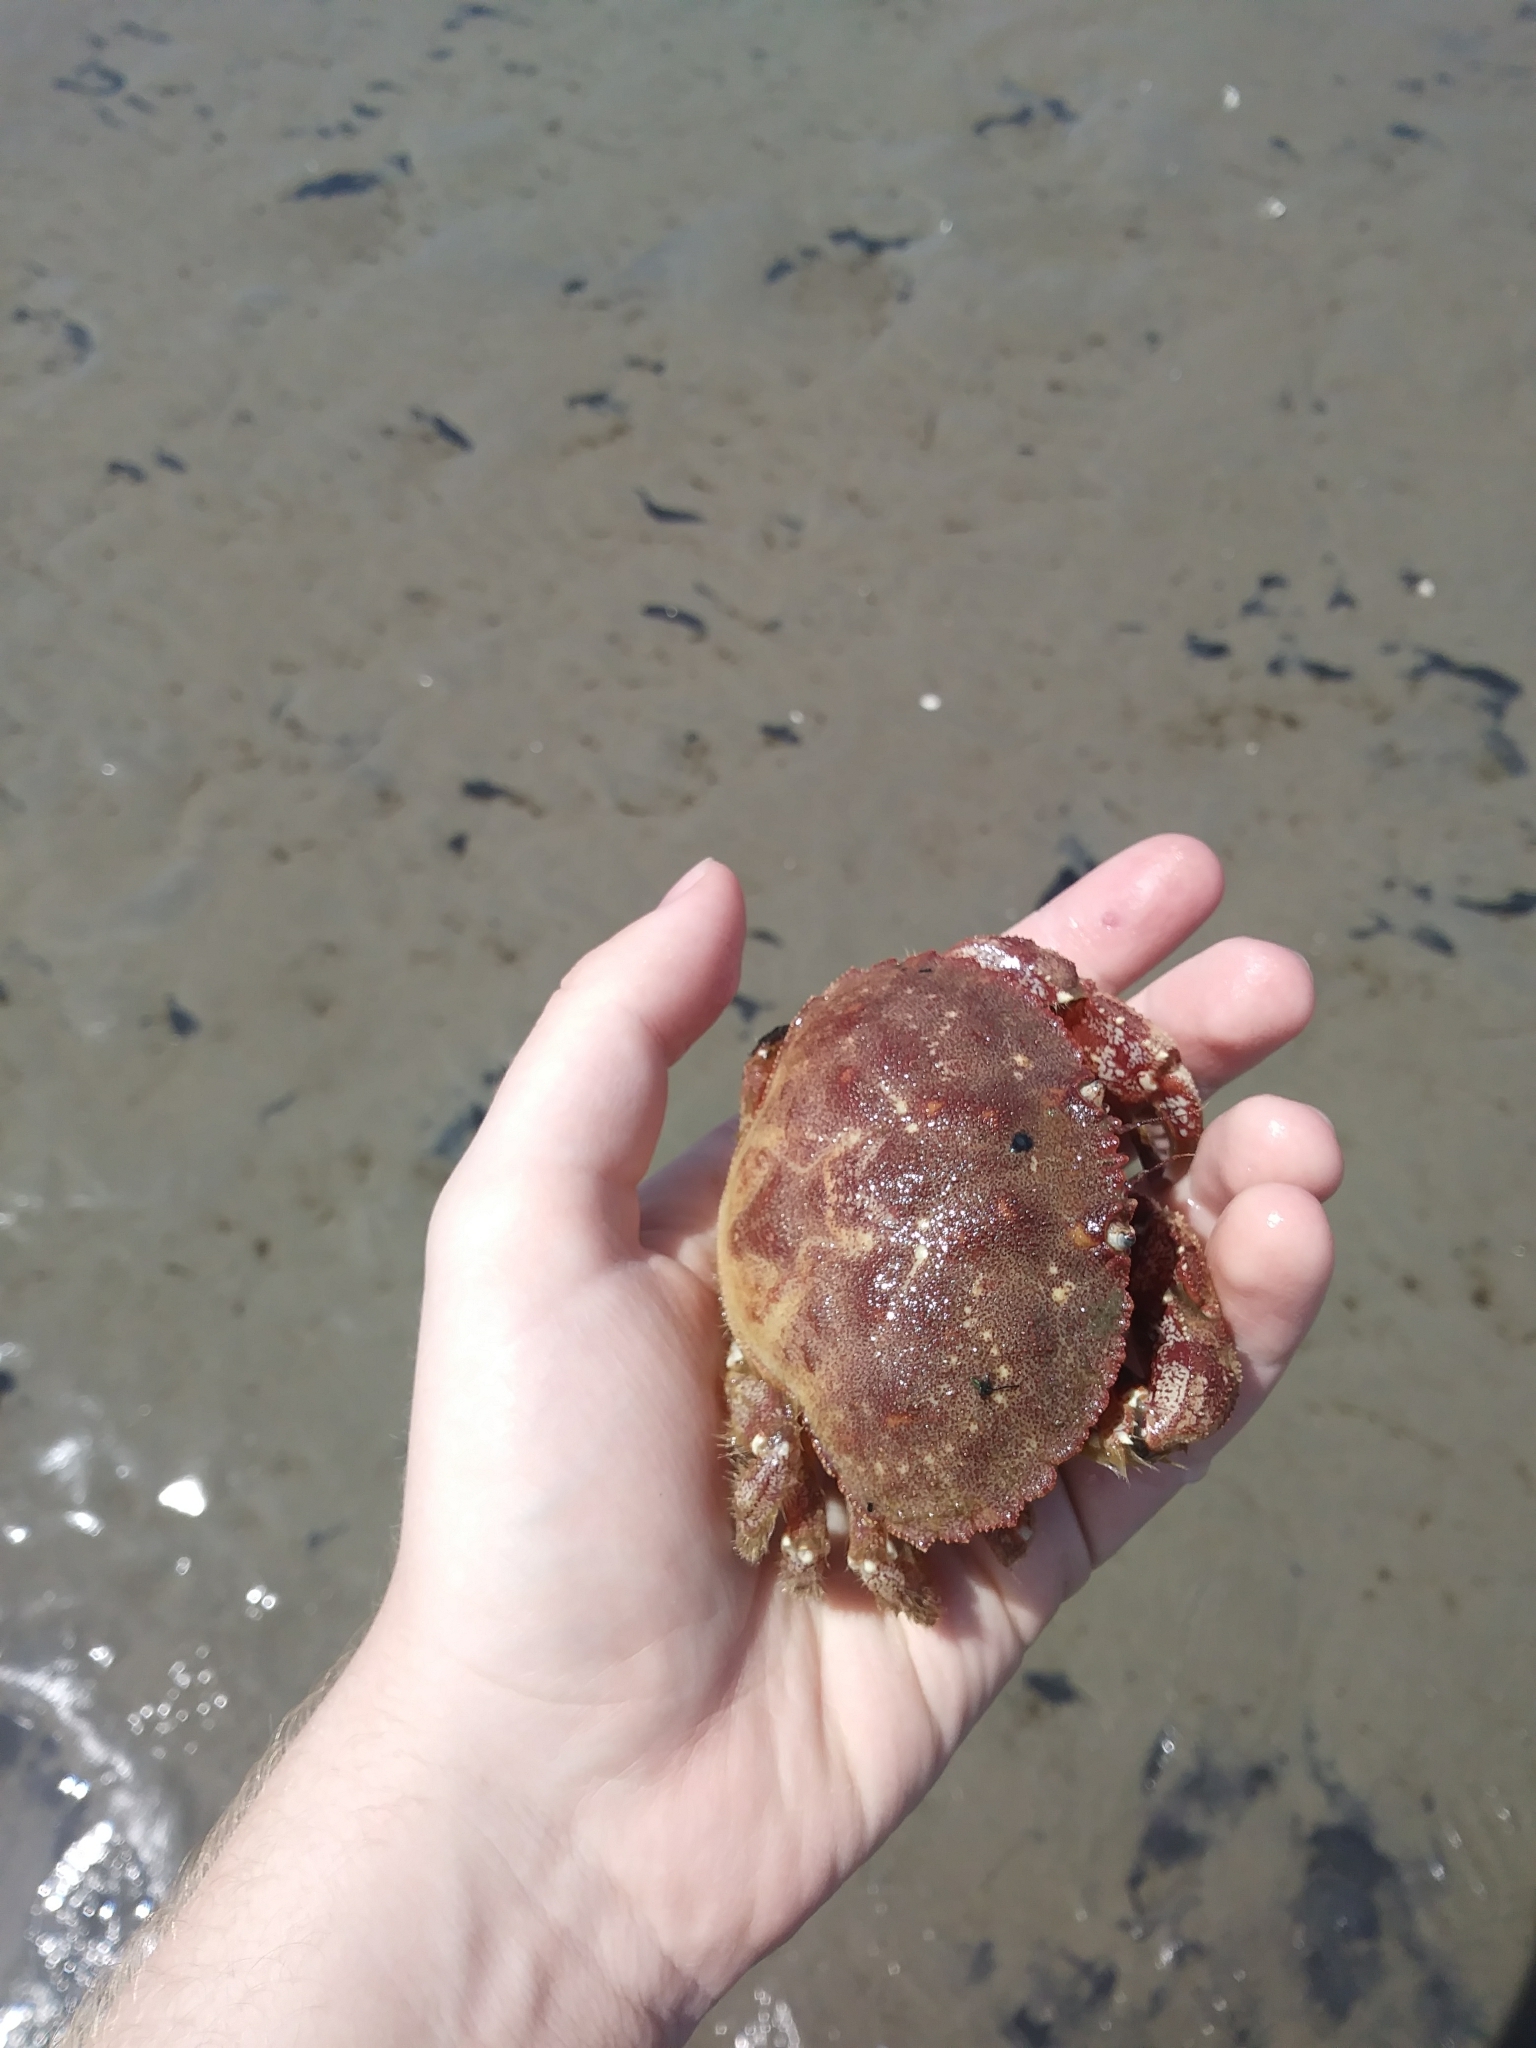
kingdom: Animalia
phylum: Arthropoda
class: Malacostraca
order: Decapoda
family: Cancridae
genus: Cancer
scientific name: Cancer borealis
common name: Jonah crab
